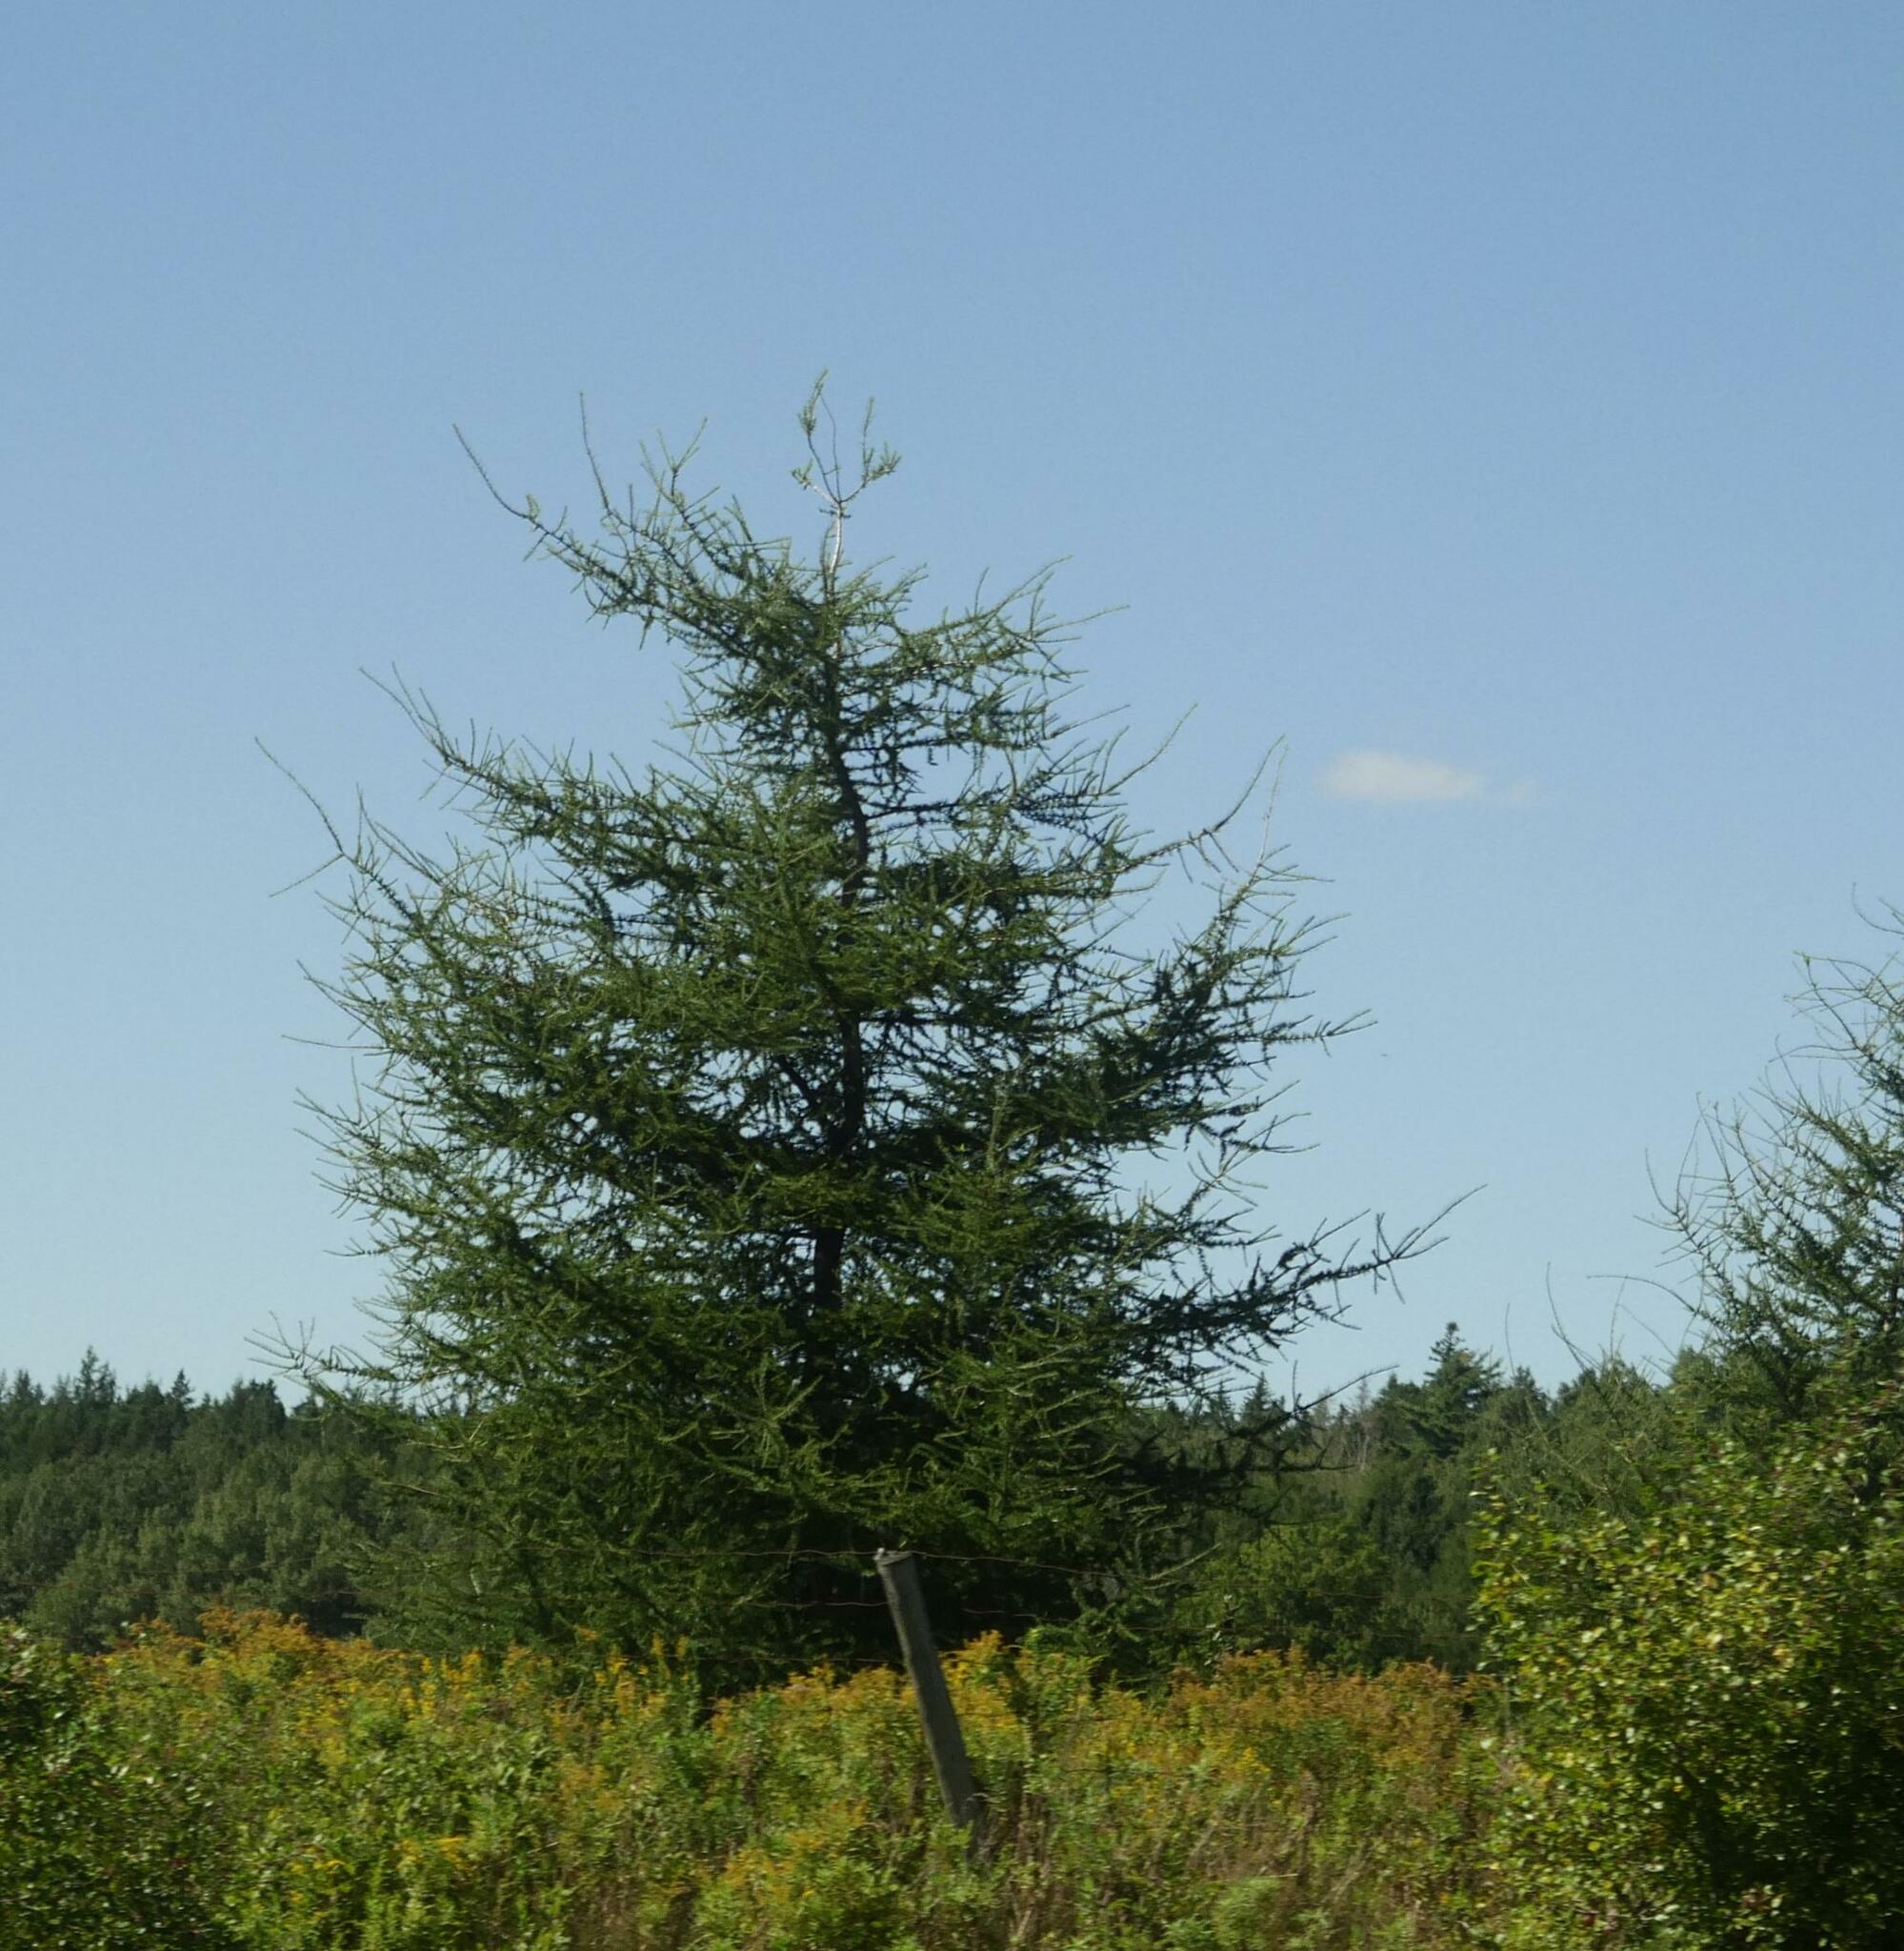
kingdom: Plantae
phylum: Tracheophyta
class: Pinopsida
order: Pinales
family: Pinaceae
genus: Larix
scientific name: Larix laricina
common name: American larch
